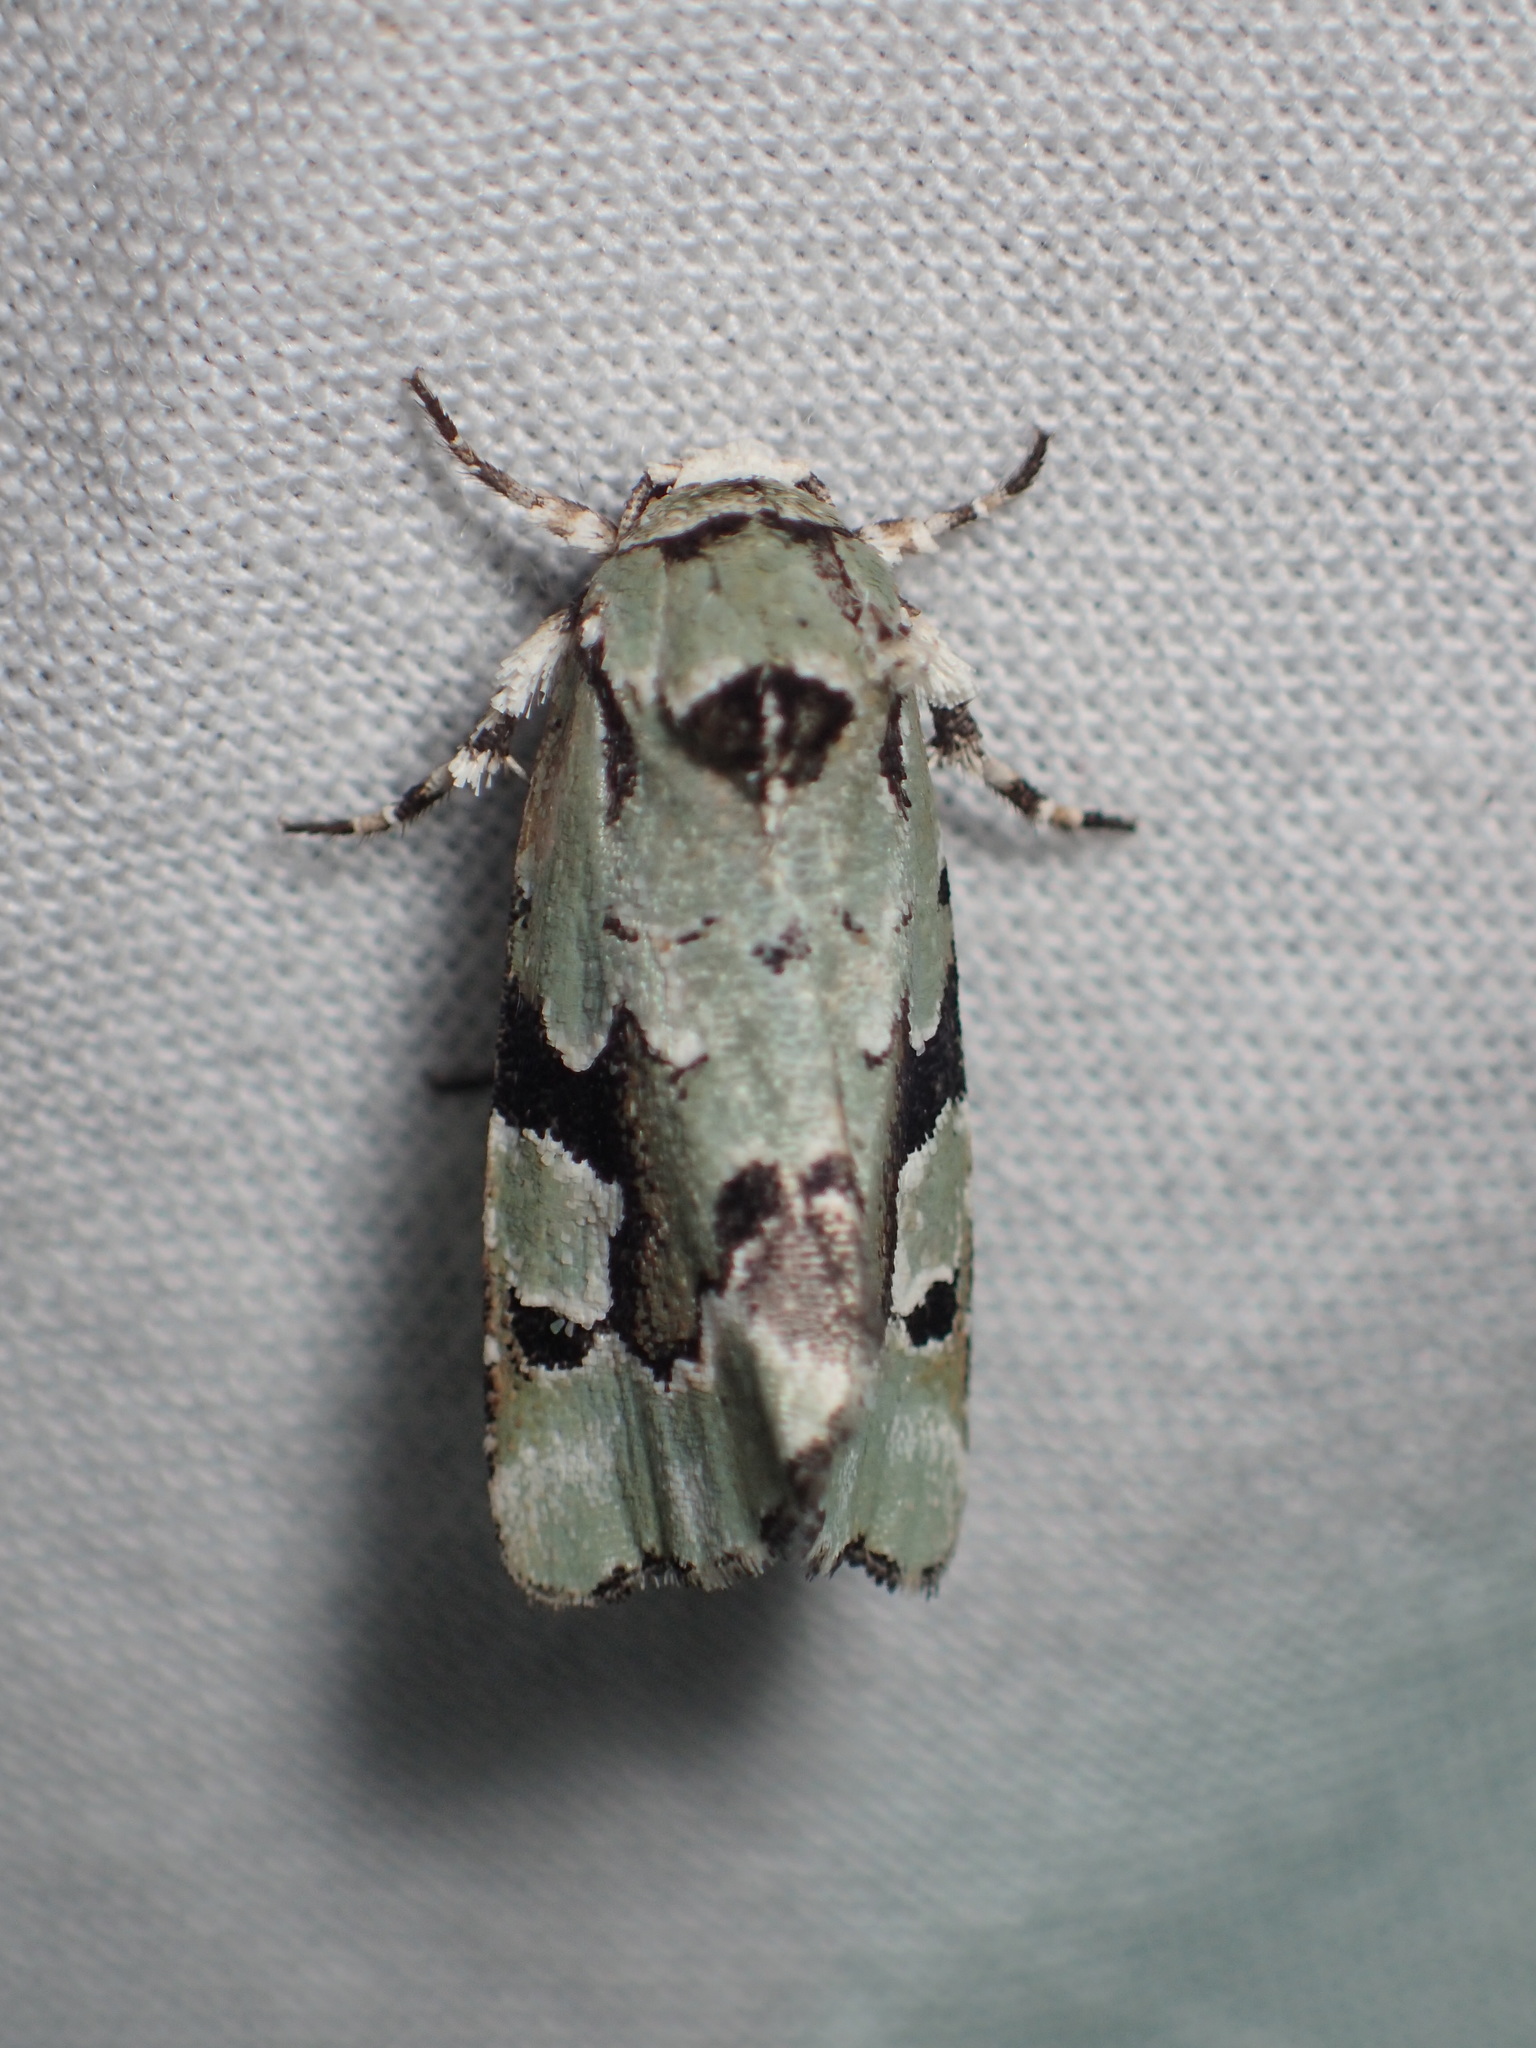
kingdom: Animalia
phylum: Arthropoda
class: Insecta
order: Lepidoptera
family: Noctuidae
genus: Emarginea
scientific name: Emarginea percara
